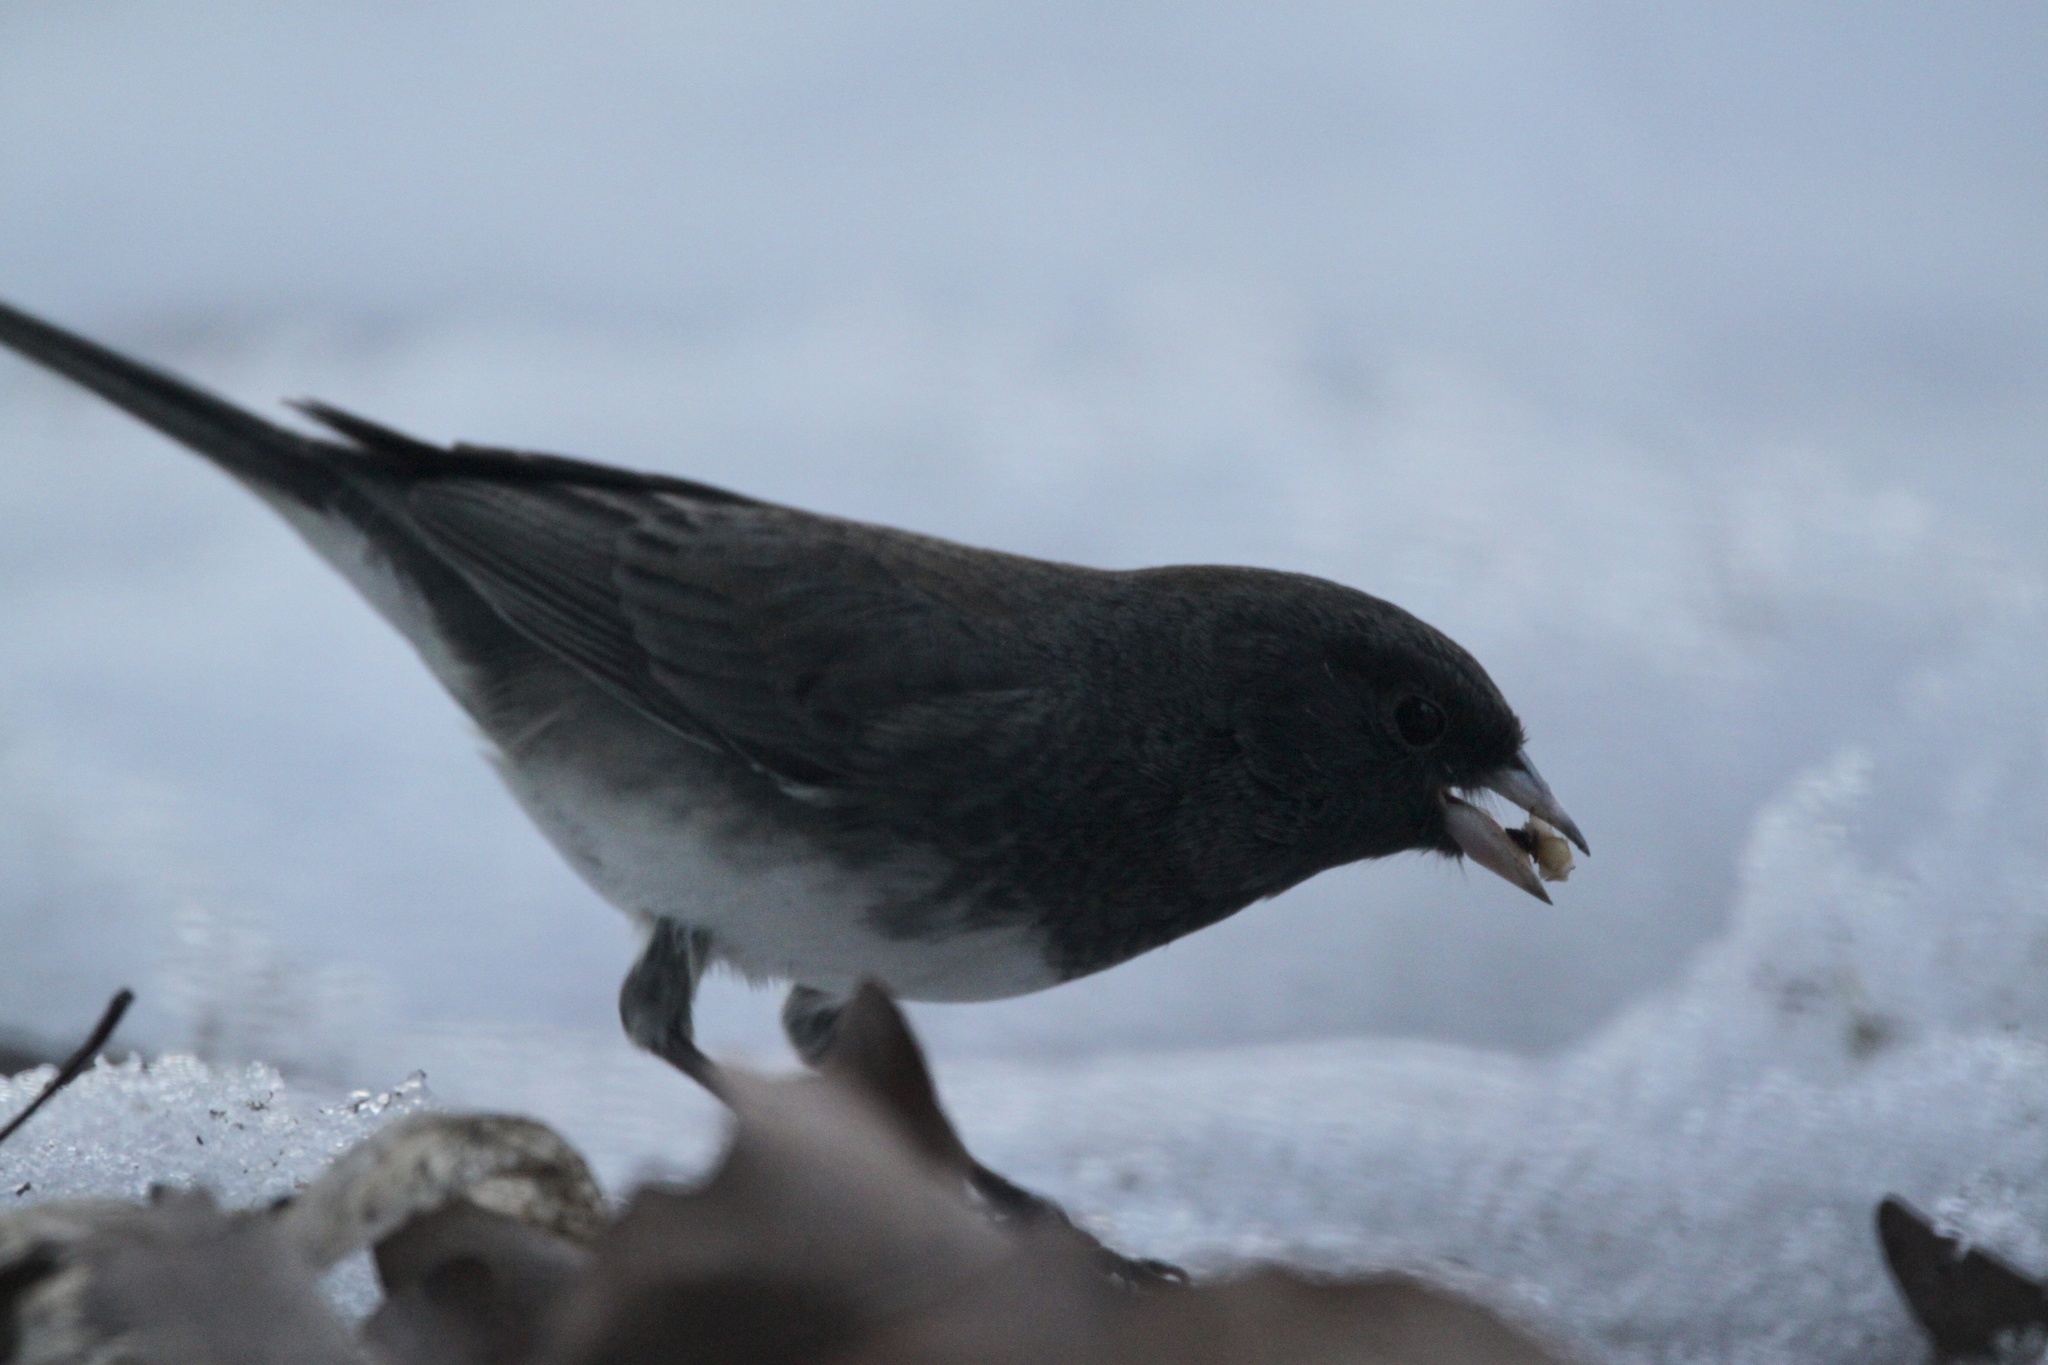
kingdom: Animalia
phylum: Chordata
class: Aves
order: Passeriformes
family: Passerellidae
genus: Junco
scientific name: Junco hyemalis
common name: Dark-eyed junco
